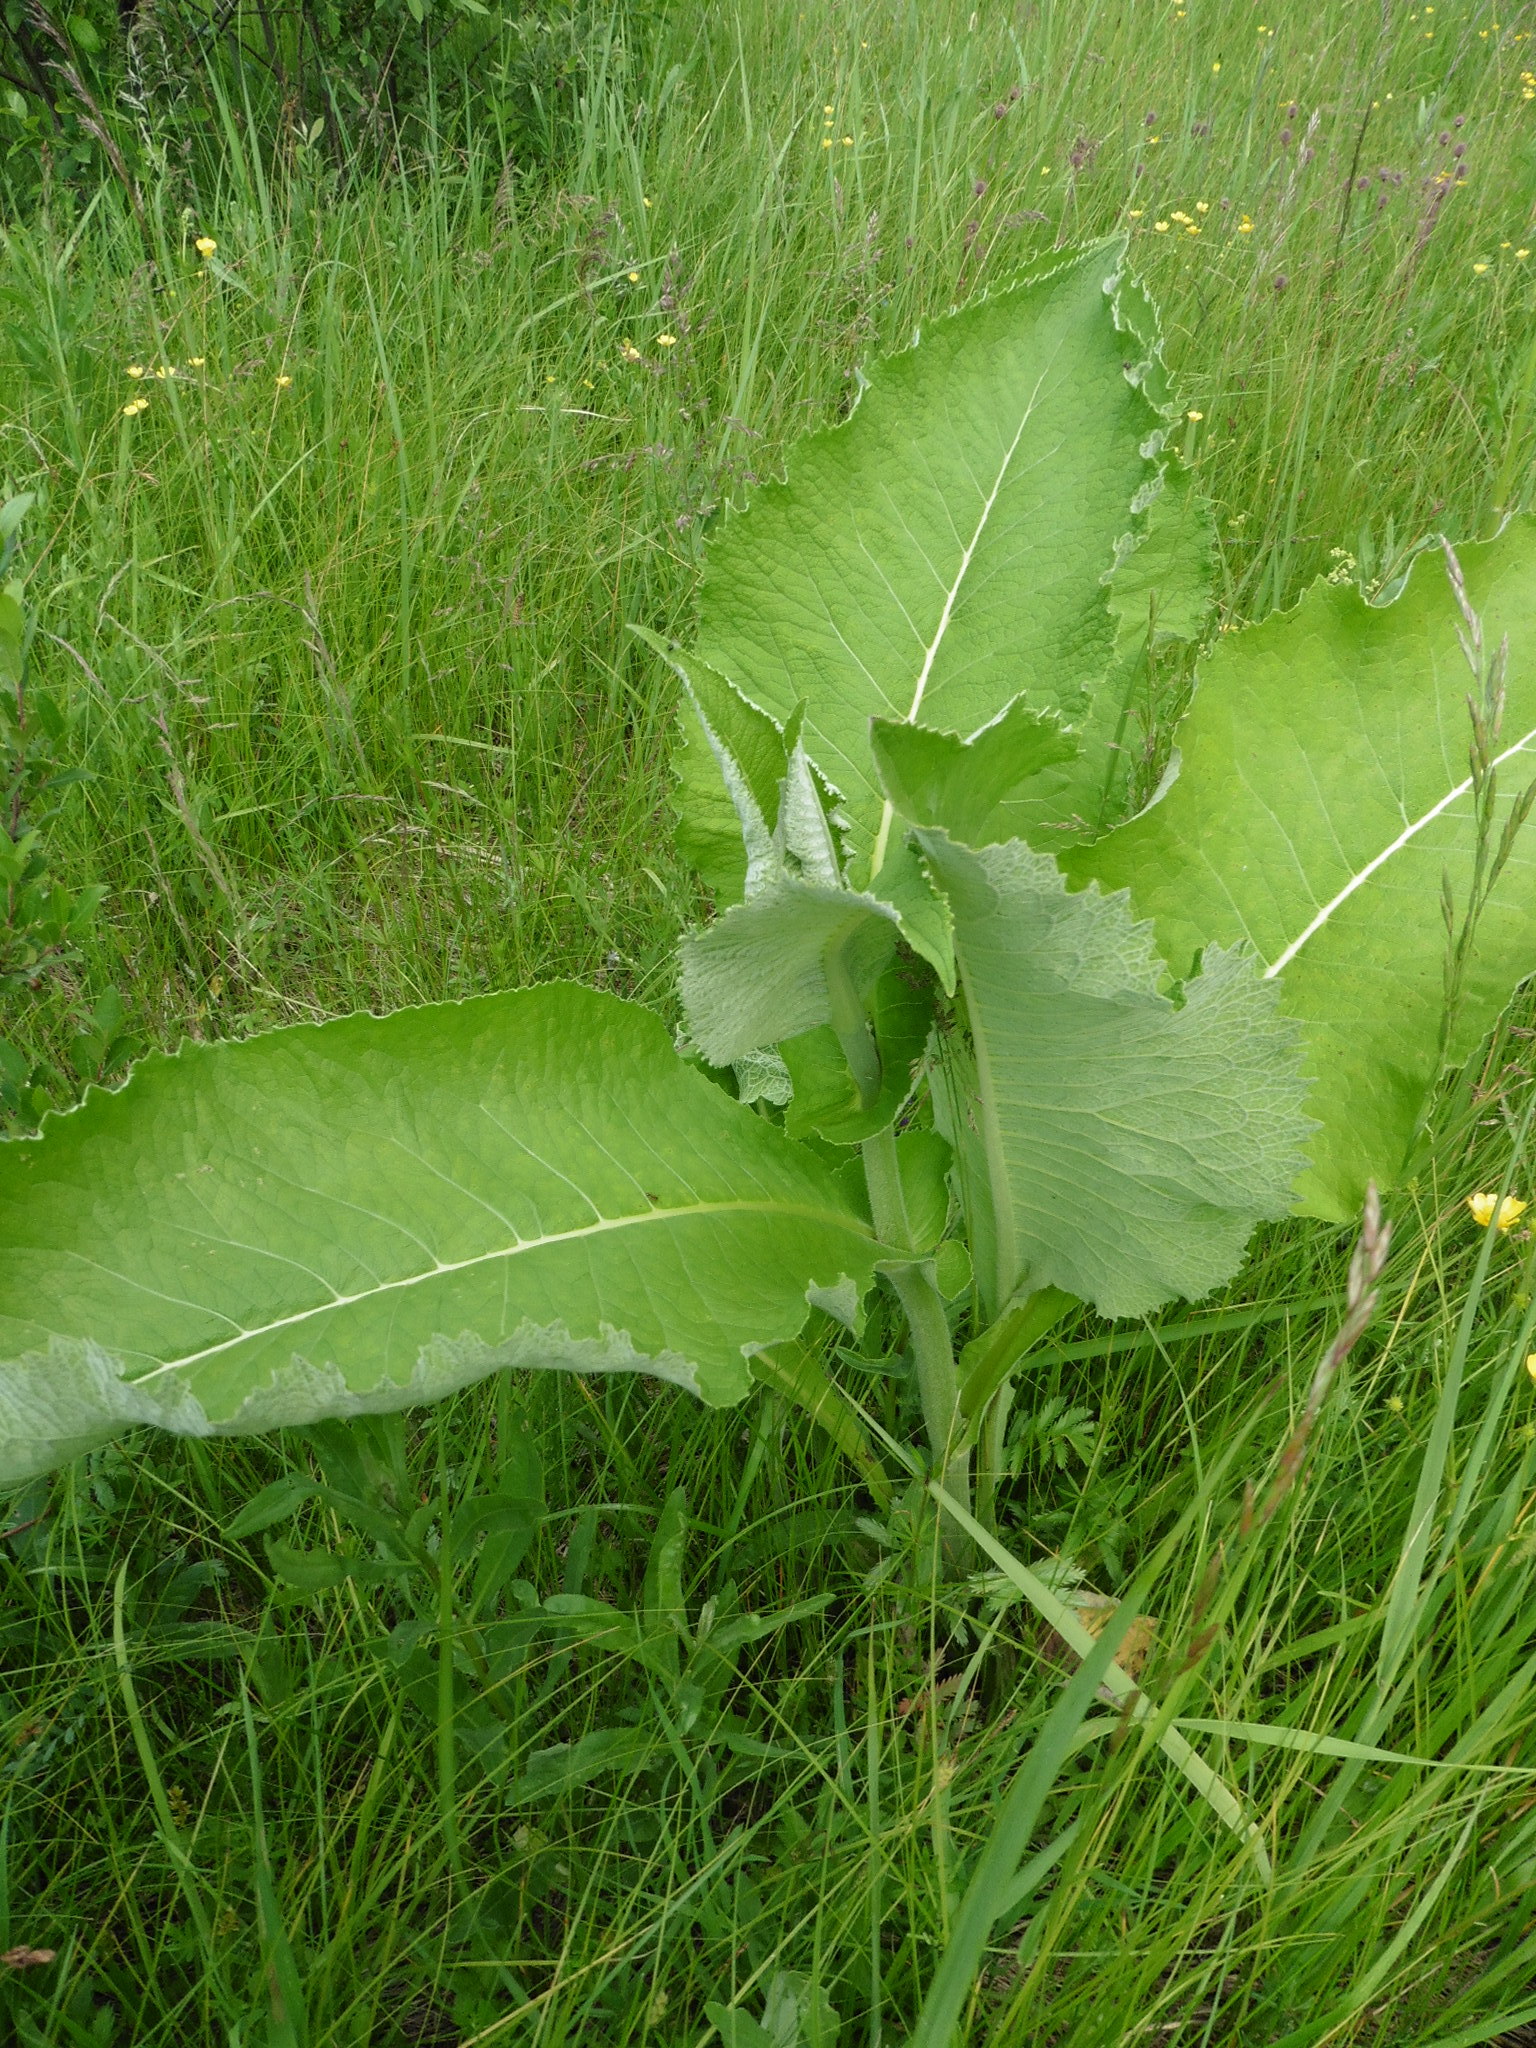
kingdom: Plantae
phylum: Tracheophyta
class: Magnoliopsida
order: Asterales
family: Asteraceae
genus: Inula
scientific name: Inula helenium
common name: Elecampane
